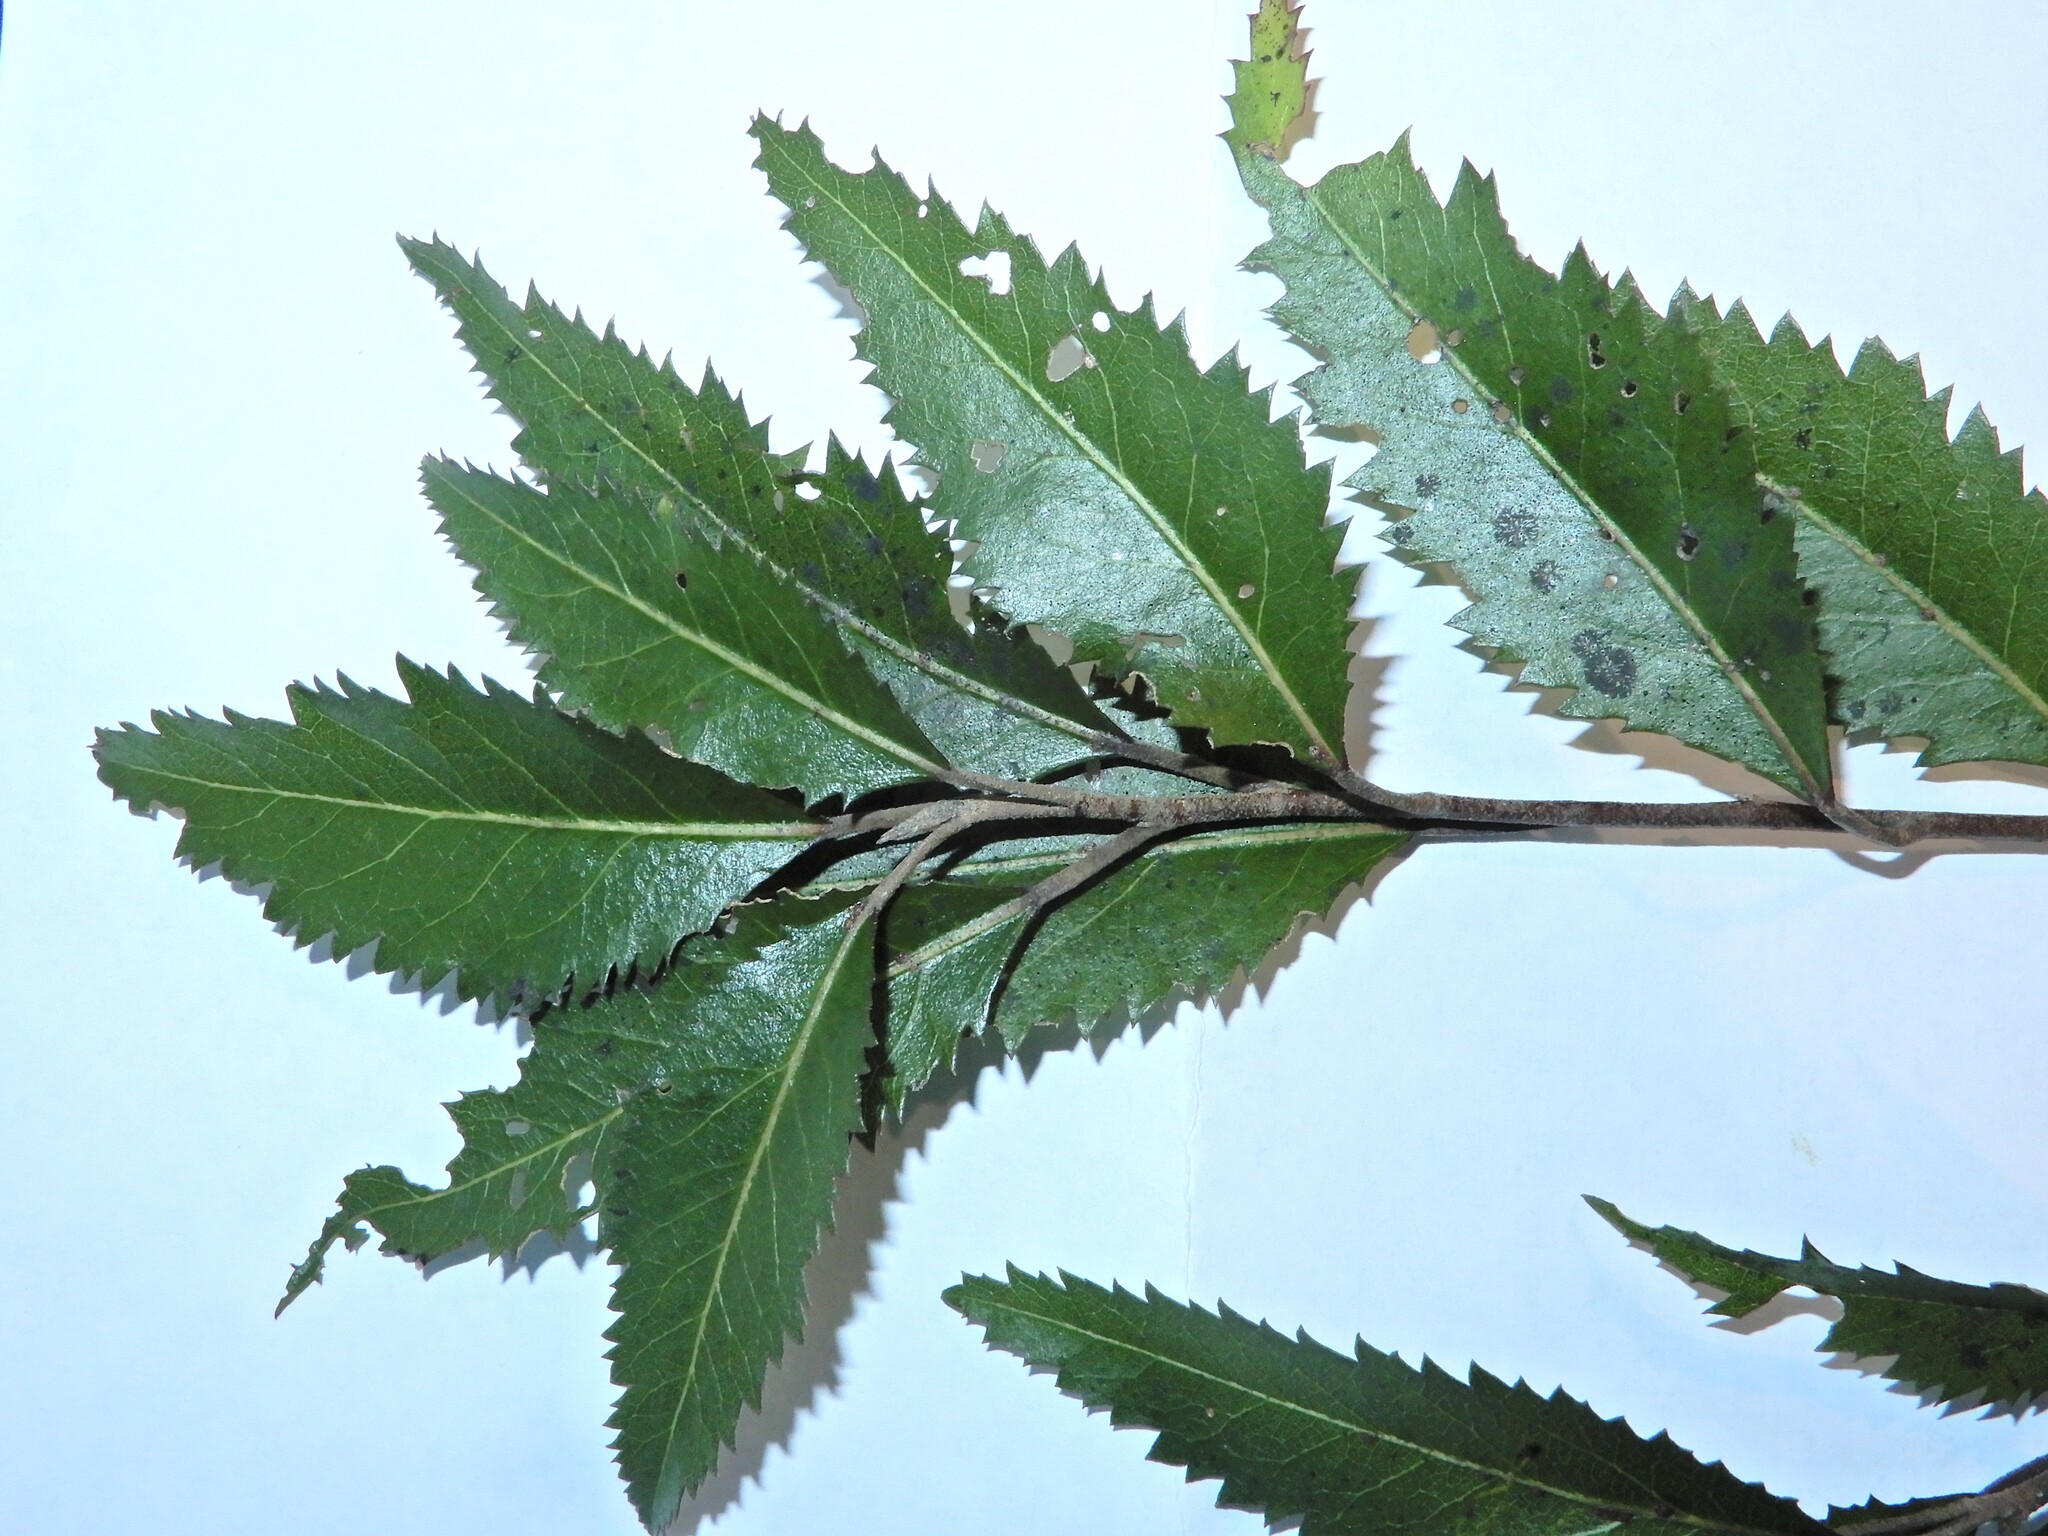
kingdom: Plantae
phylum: Tracheophyta
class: Magnoliopsida
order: Malvales
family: Malvaceae
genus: Hoheria
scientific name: Hoheria sexstylosa
